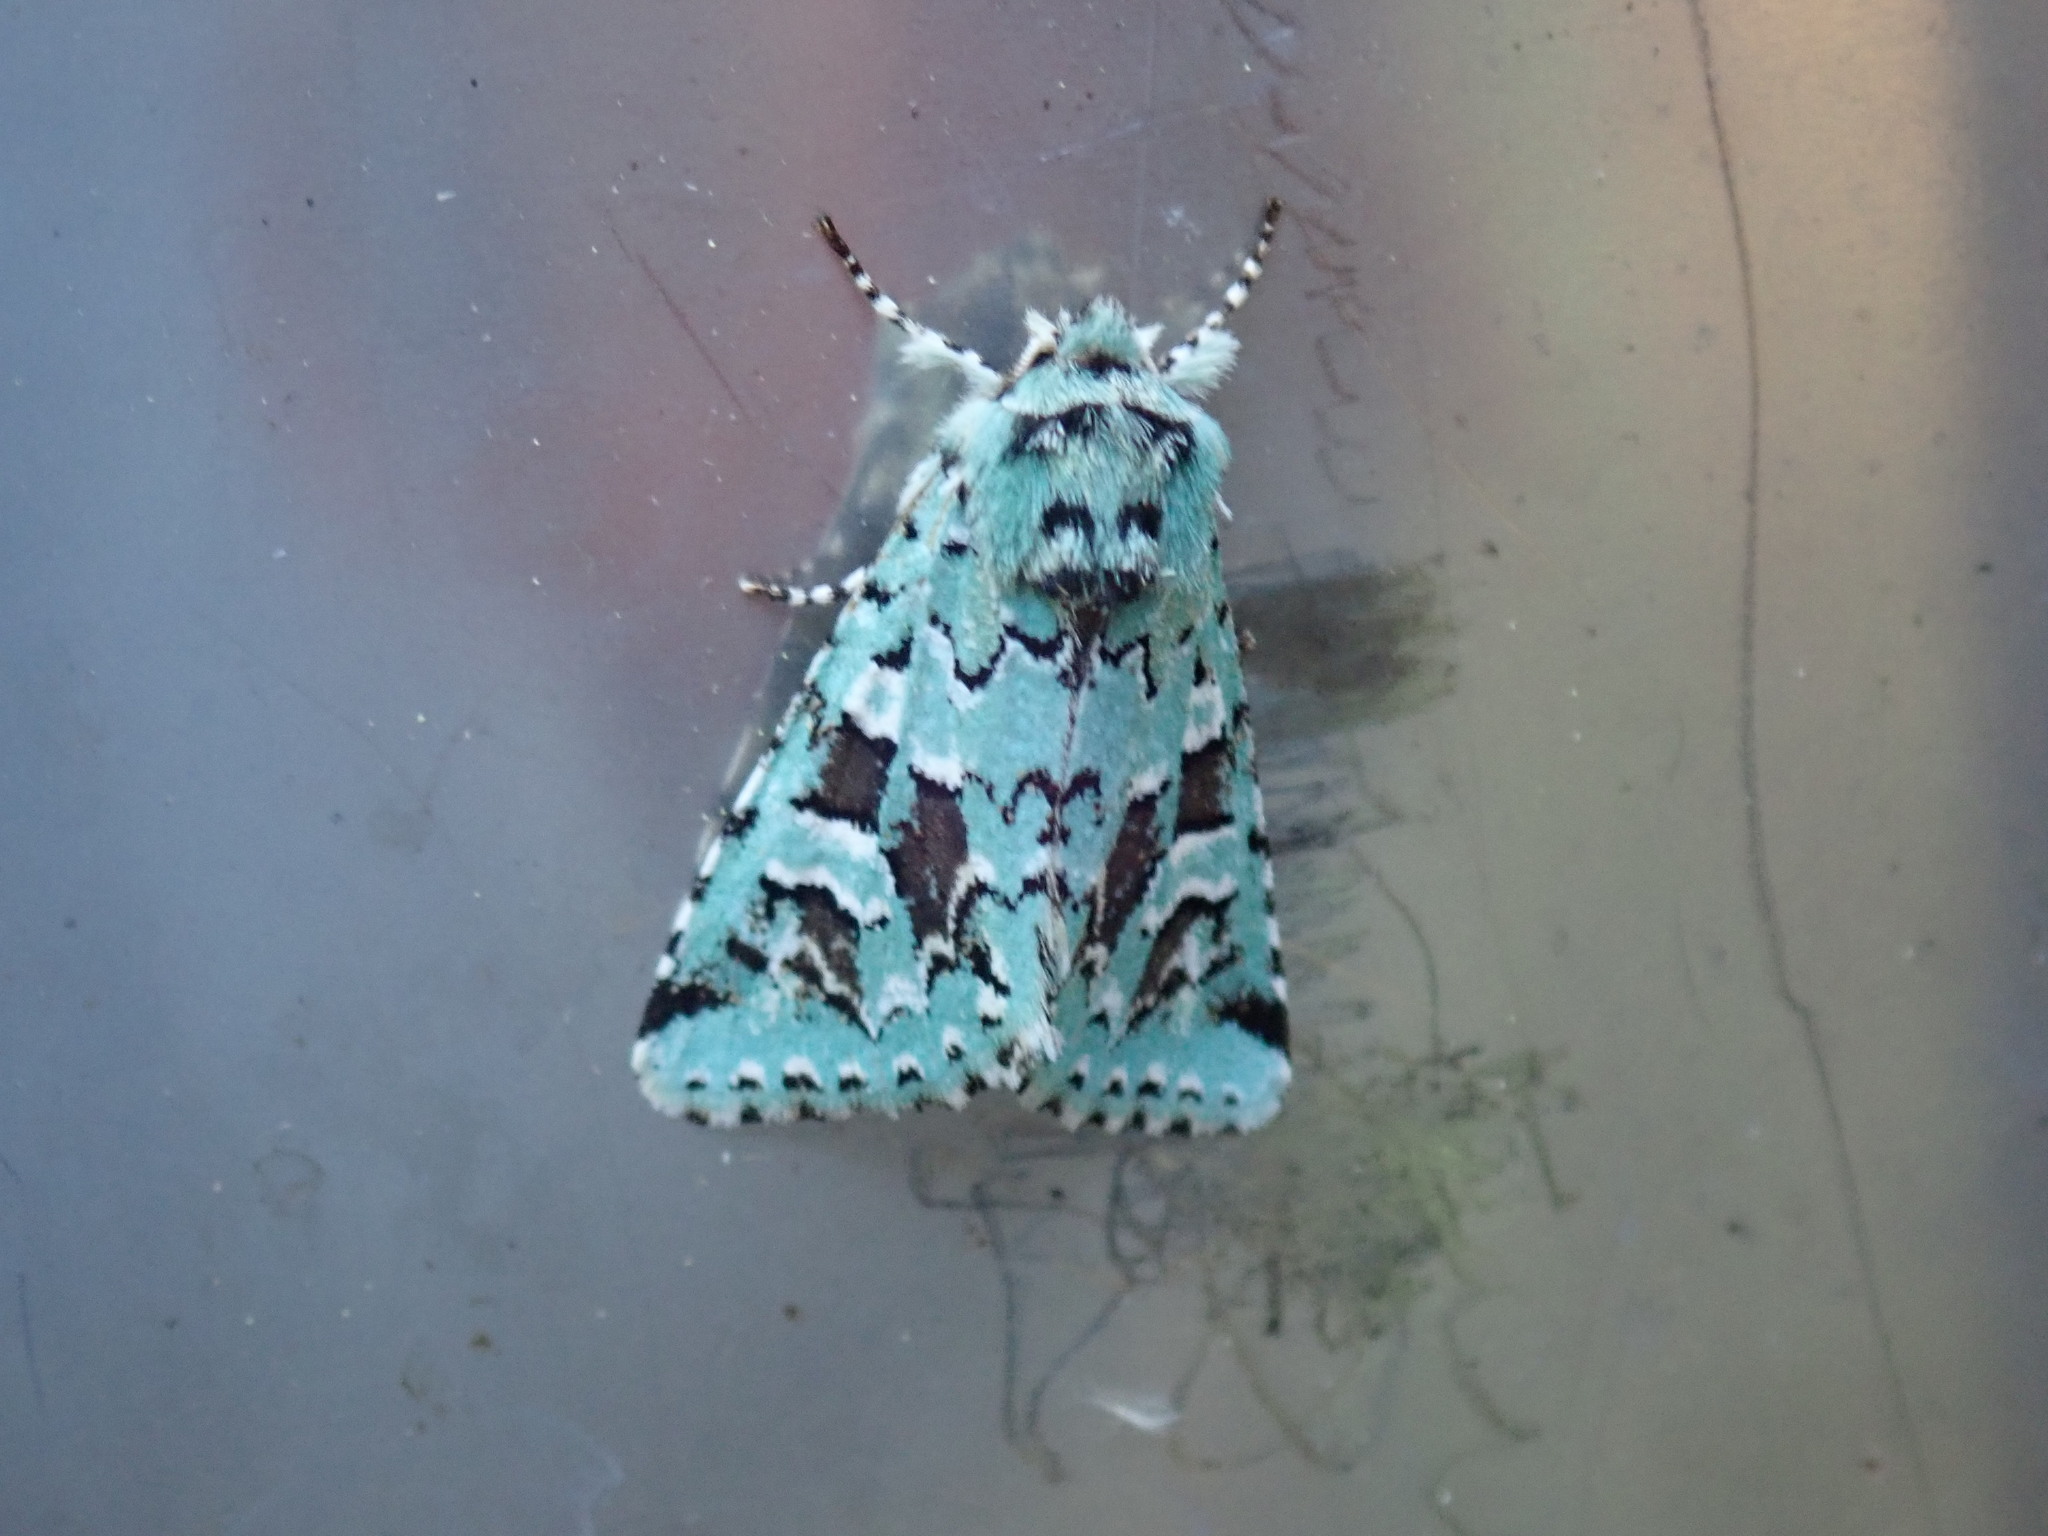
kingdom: Animalia
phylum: Arthropoda
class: Insecta
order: Lepidoptera
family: Noctuidae
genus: Feralia
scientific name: Feralia comstocki
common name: Comstock's sallow
